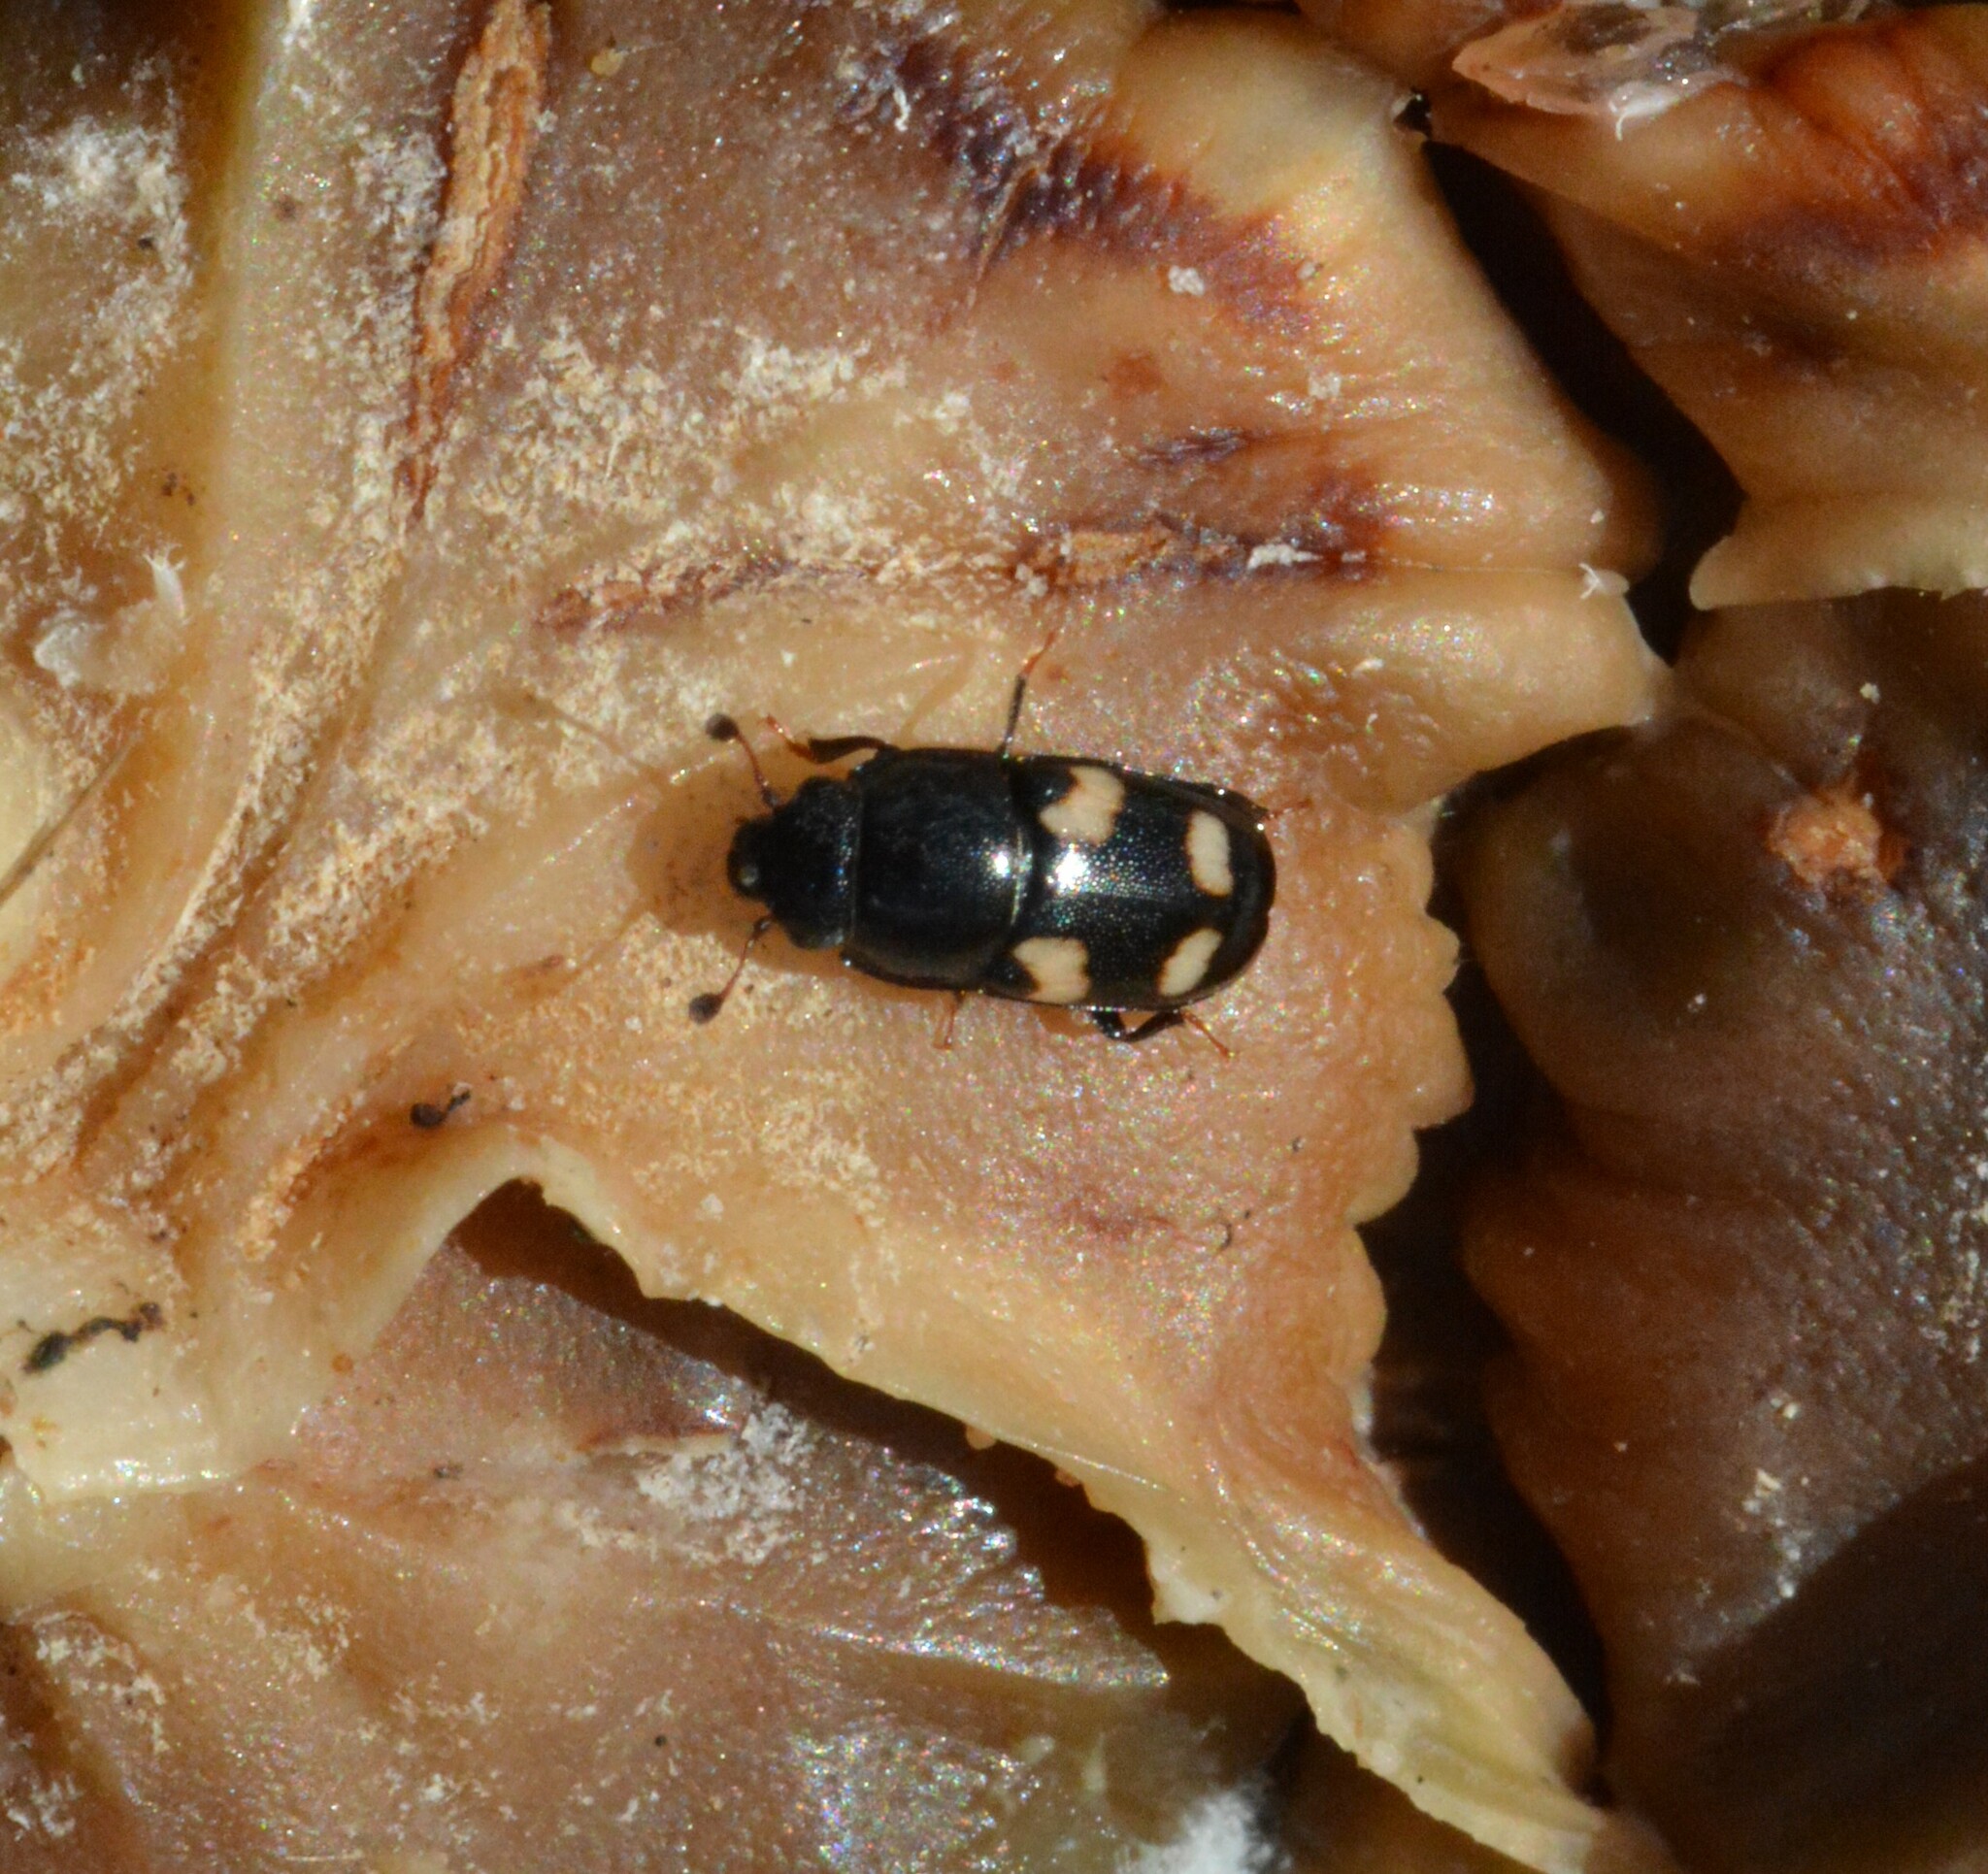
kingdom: Animalia
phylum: Arthropoda
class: Insecta
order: Coleoptera
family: Nitidulidae
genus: Glischrochilus
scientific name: Glischrochilus quadrisignatus
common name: Picnic beetle
